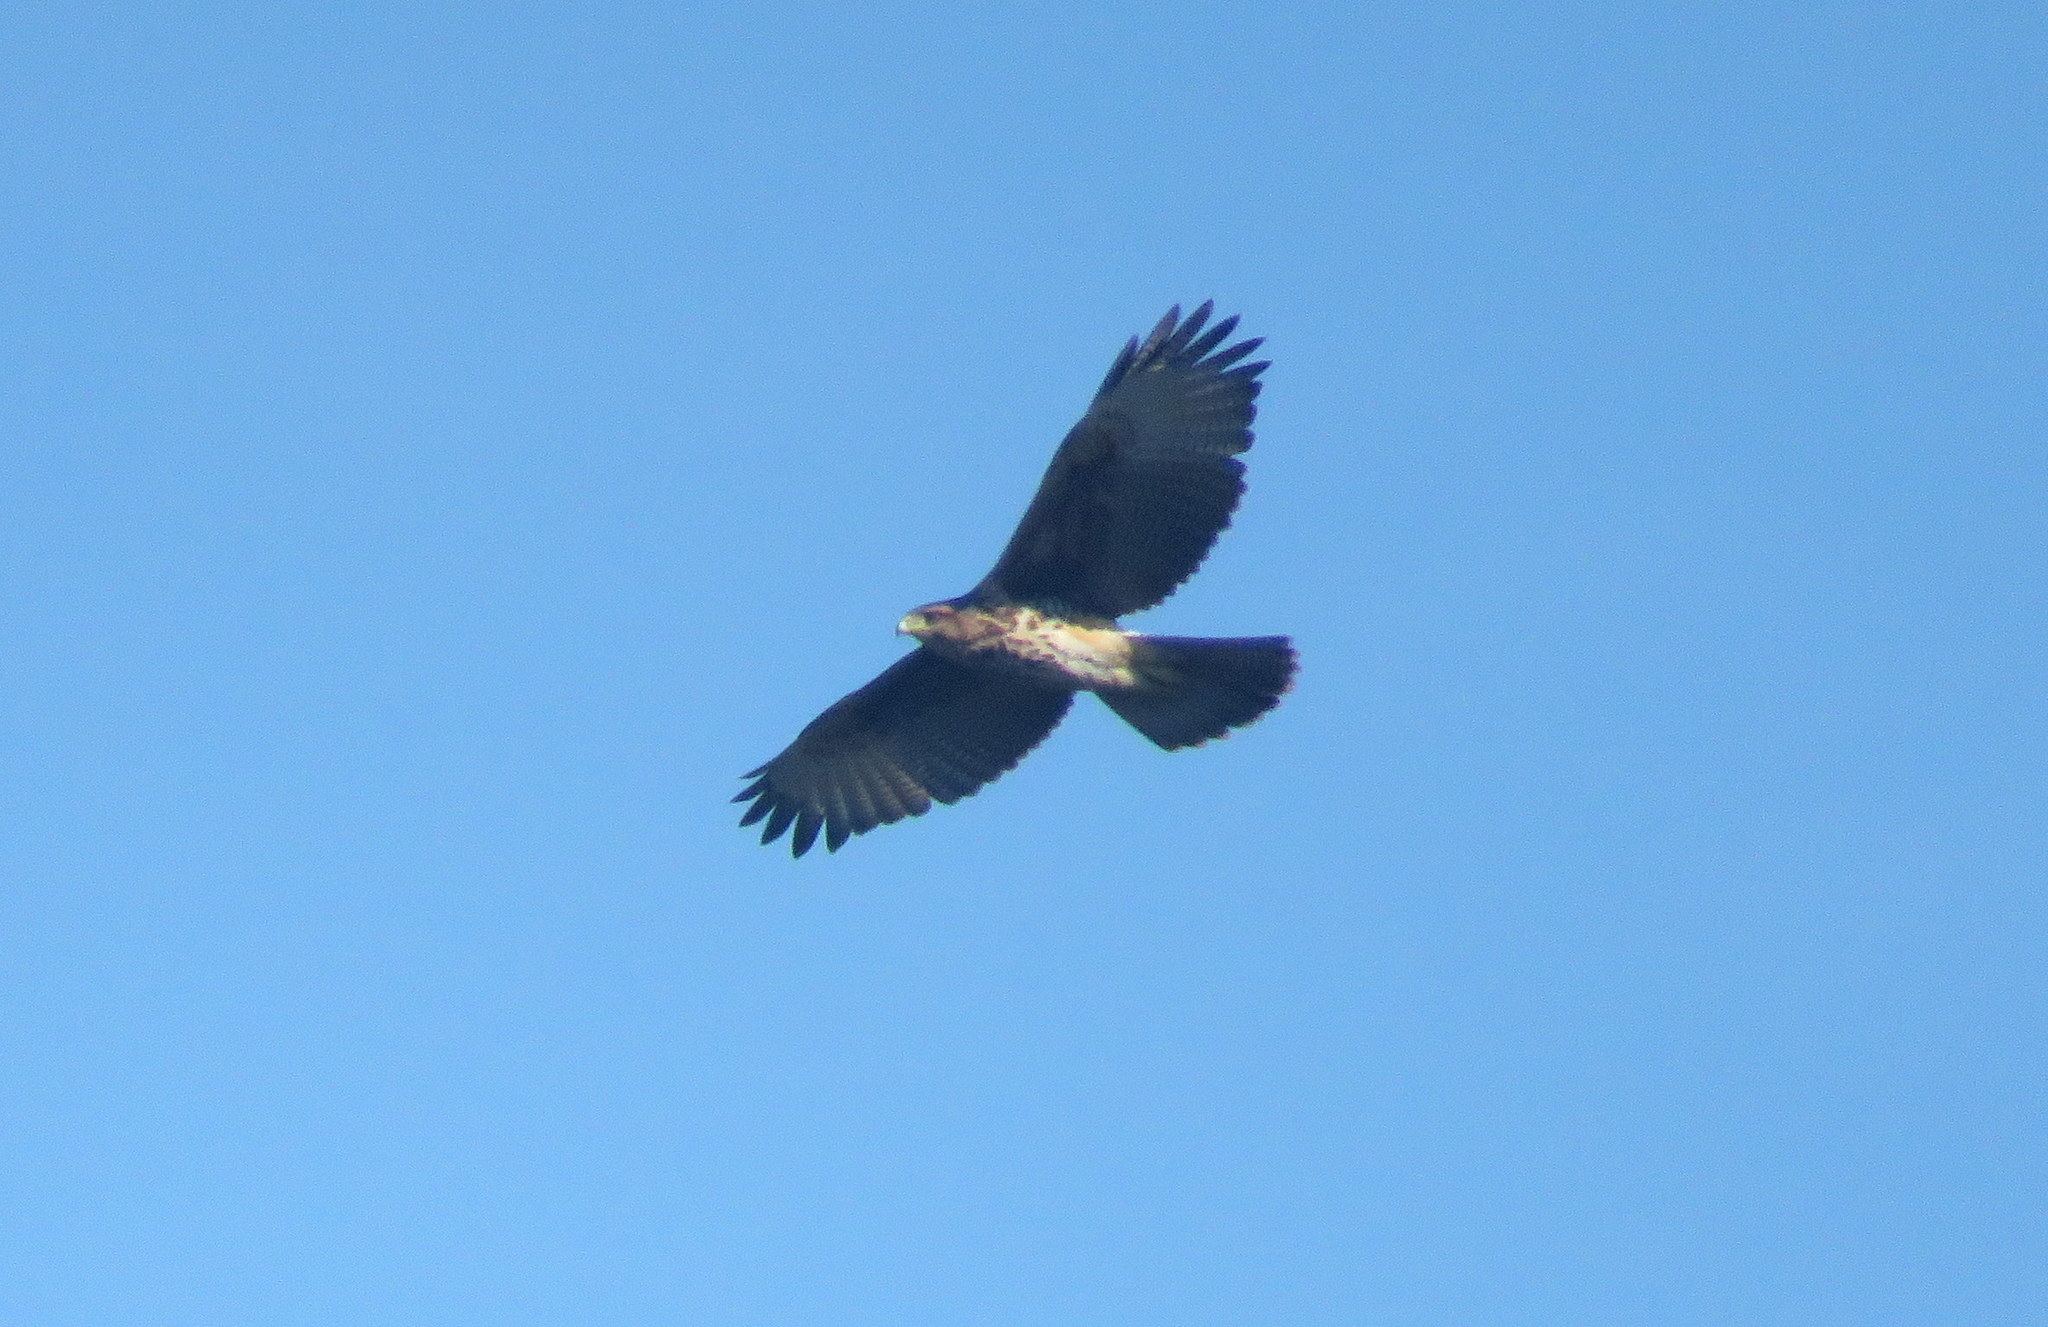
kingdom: Animalia
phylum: Chordata
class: Aves
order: Accipitriformes
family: Accipitridae
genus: Parabuteo
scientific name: Parabuteo unicinctus
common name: Harris's hawk
